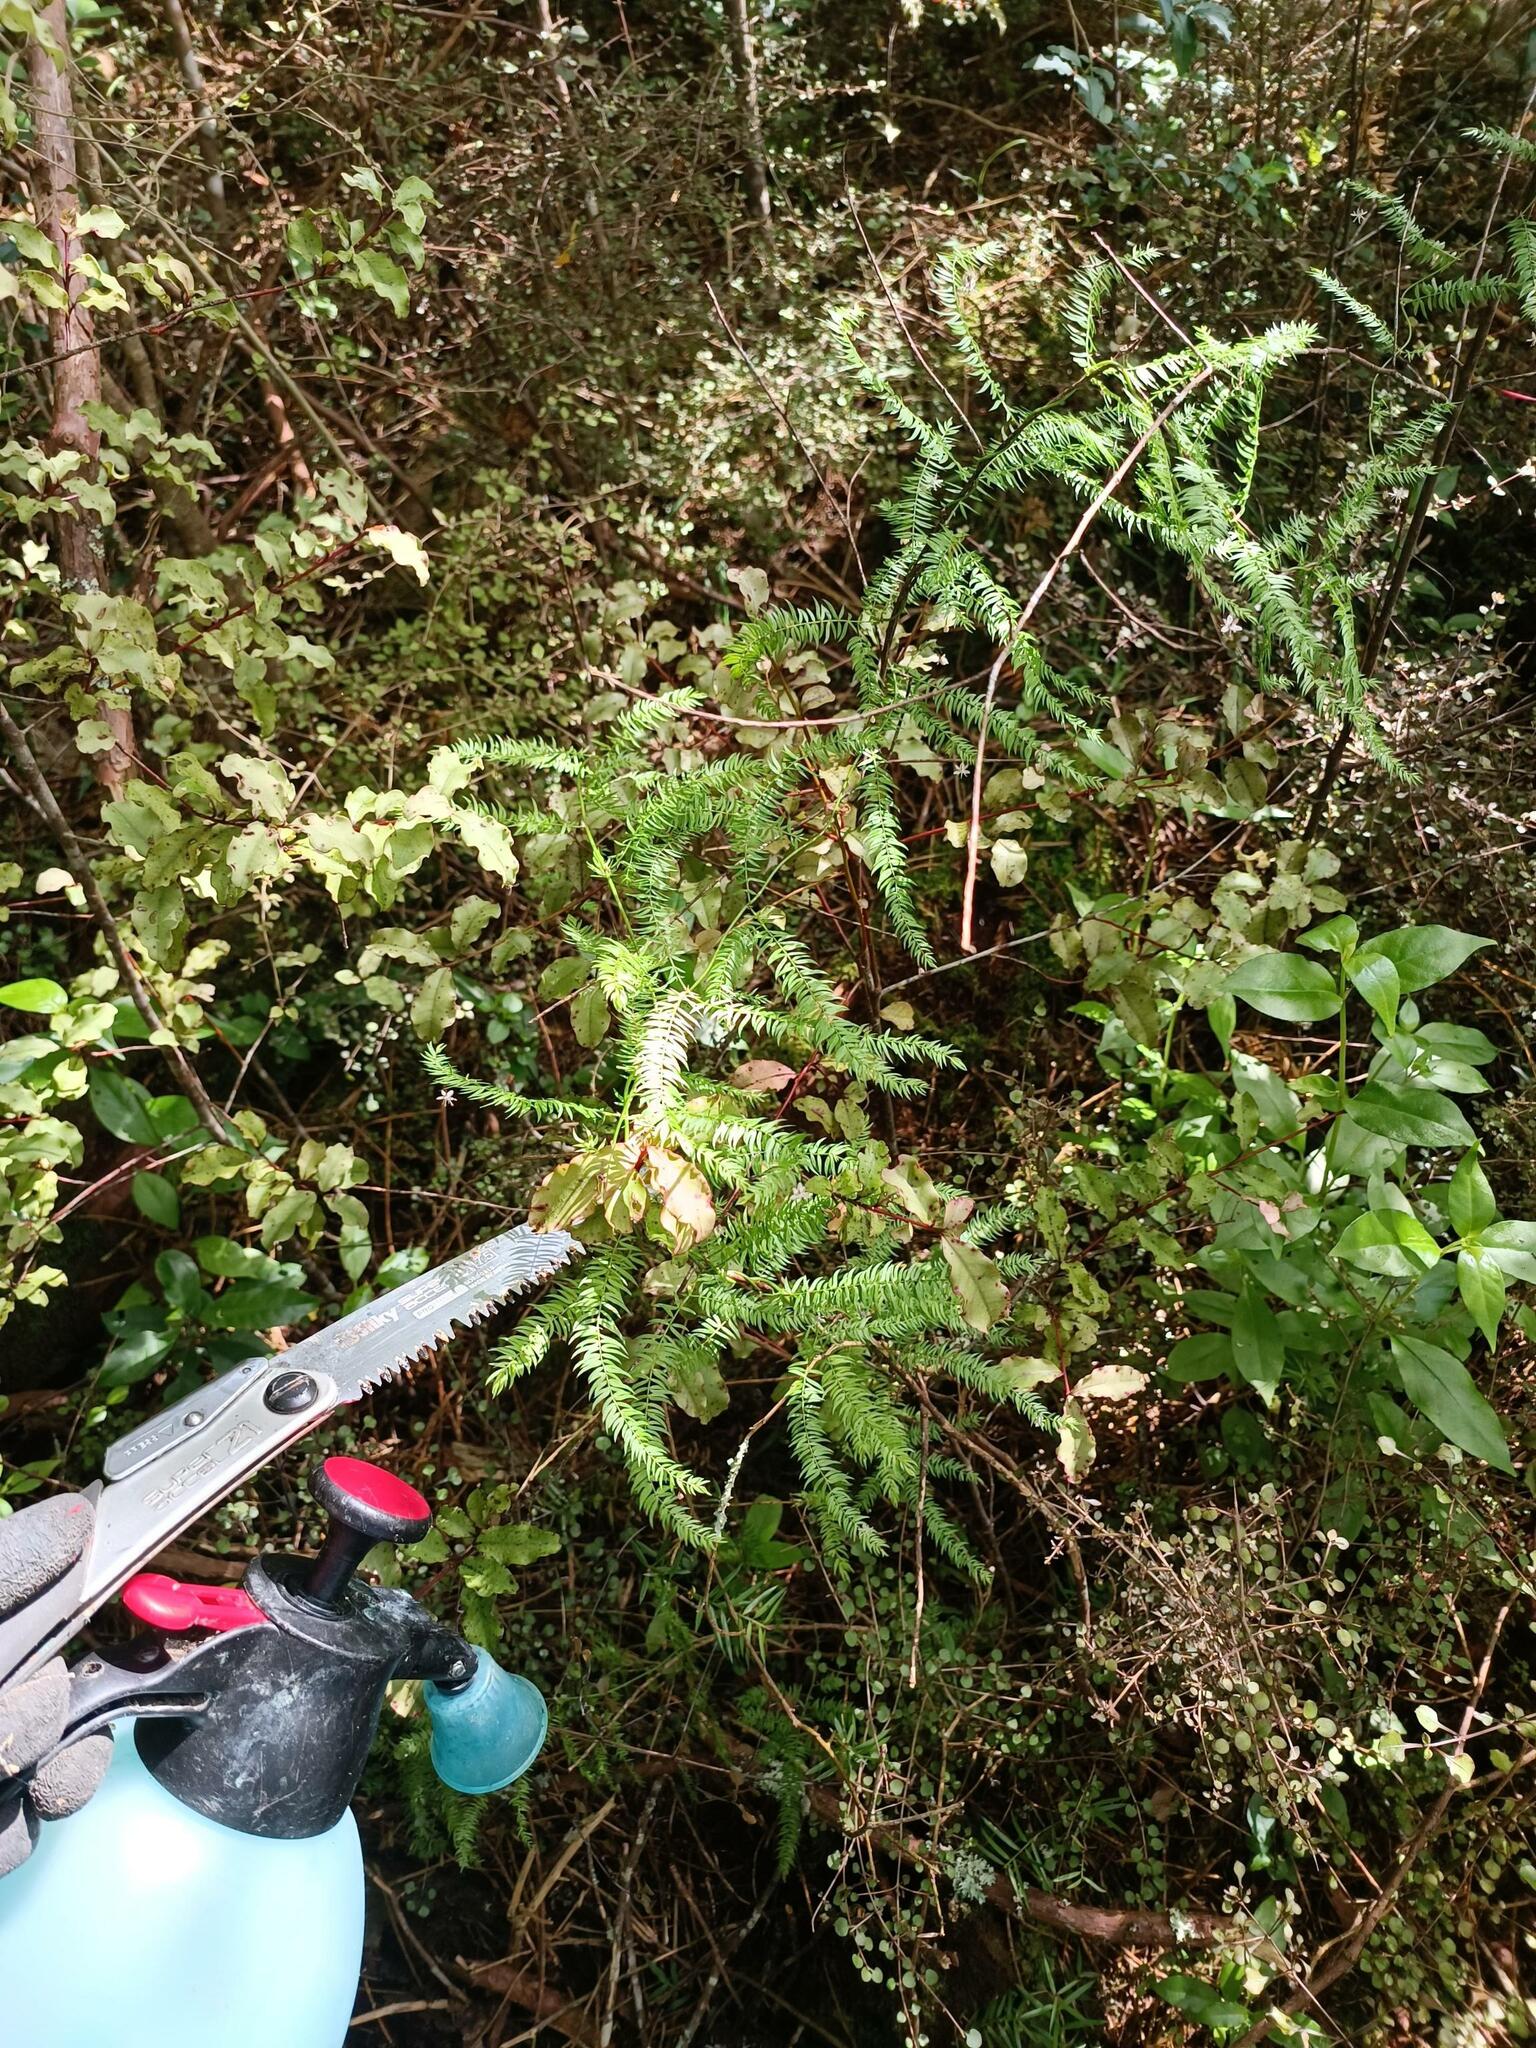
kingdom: Plantae
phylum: Tracheophyta
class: Liliopsida
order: Asparagales
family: Asparagaceae
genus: Asparagus
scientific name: Asparagus scandens
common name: Asparagus-fern
